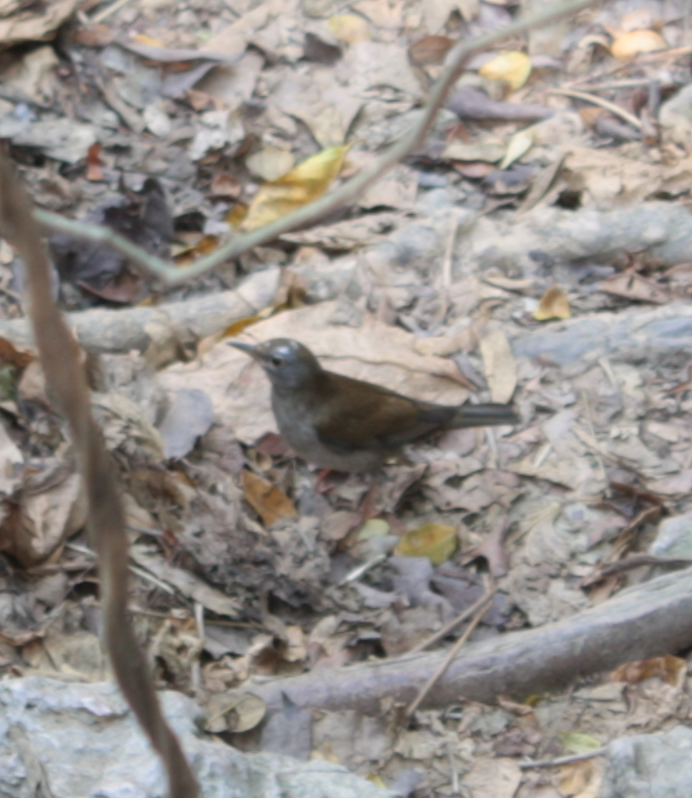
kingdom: Animalia
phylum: Chordata
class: Aves
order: Passeriformes
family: Turdidae
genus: Turdus
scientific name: Turdus pallidus
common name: Pale thrush
